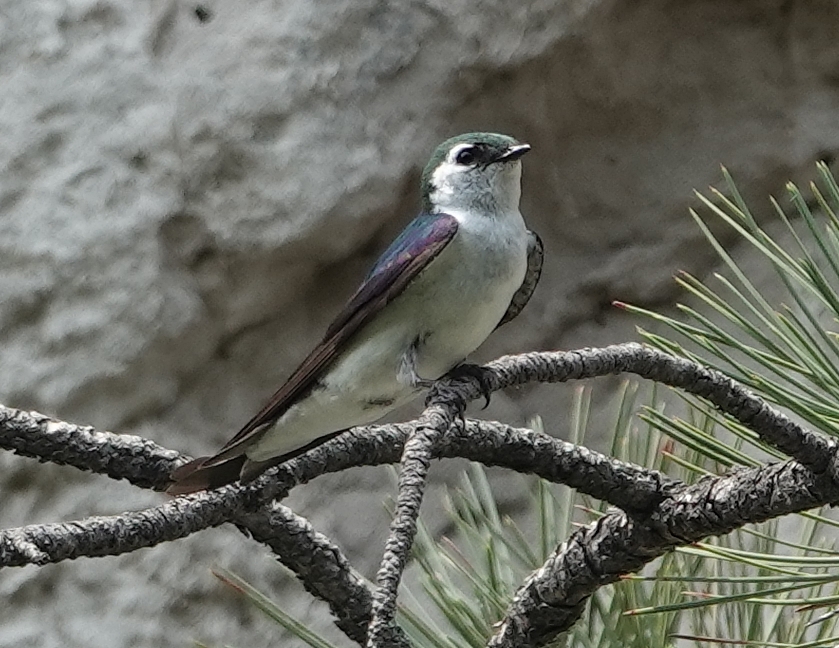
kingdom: Animalia
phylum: Chordata
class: Aves
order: Passeriformes
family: Hirundinidae
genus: Tachycineta
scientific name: Tachycineta thalassina
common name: Violet-green swallow
